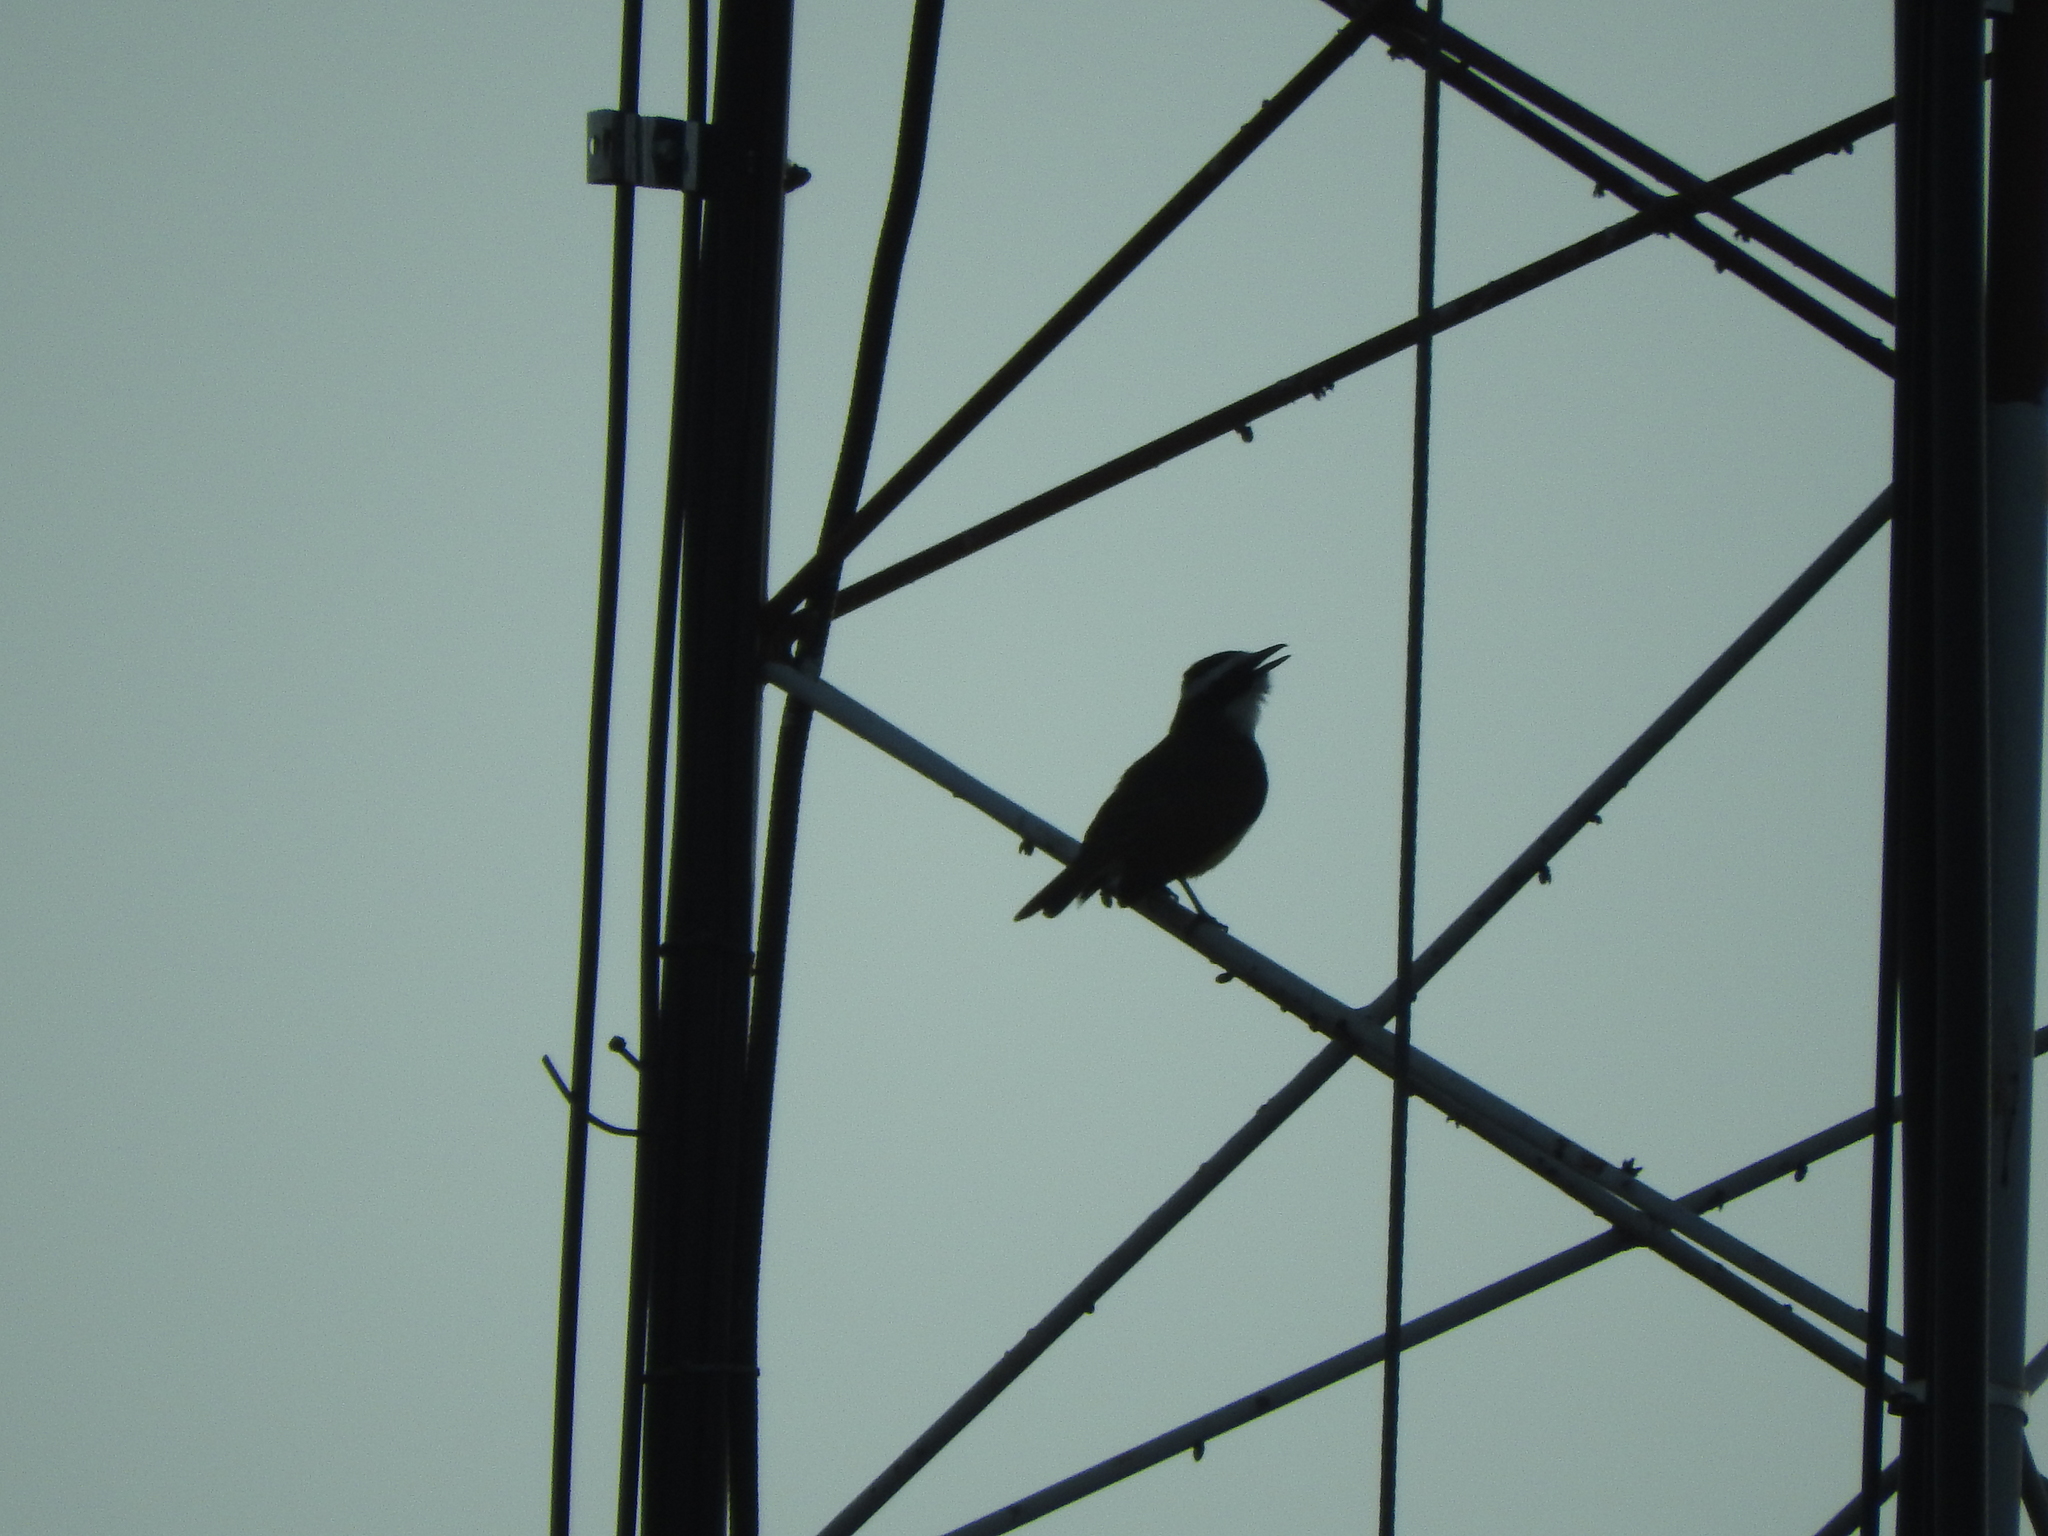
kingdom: Animalia
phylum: Chordata
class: Aves
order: Passeriformes
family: Tyrannidae
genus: Pitangus
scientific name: Pitangus sulphuratus
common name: Great kiskadee
